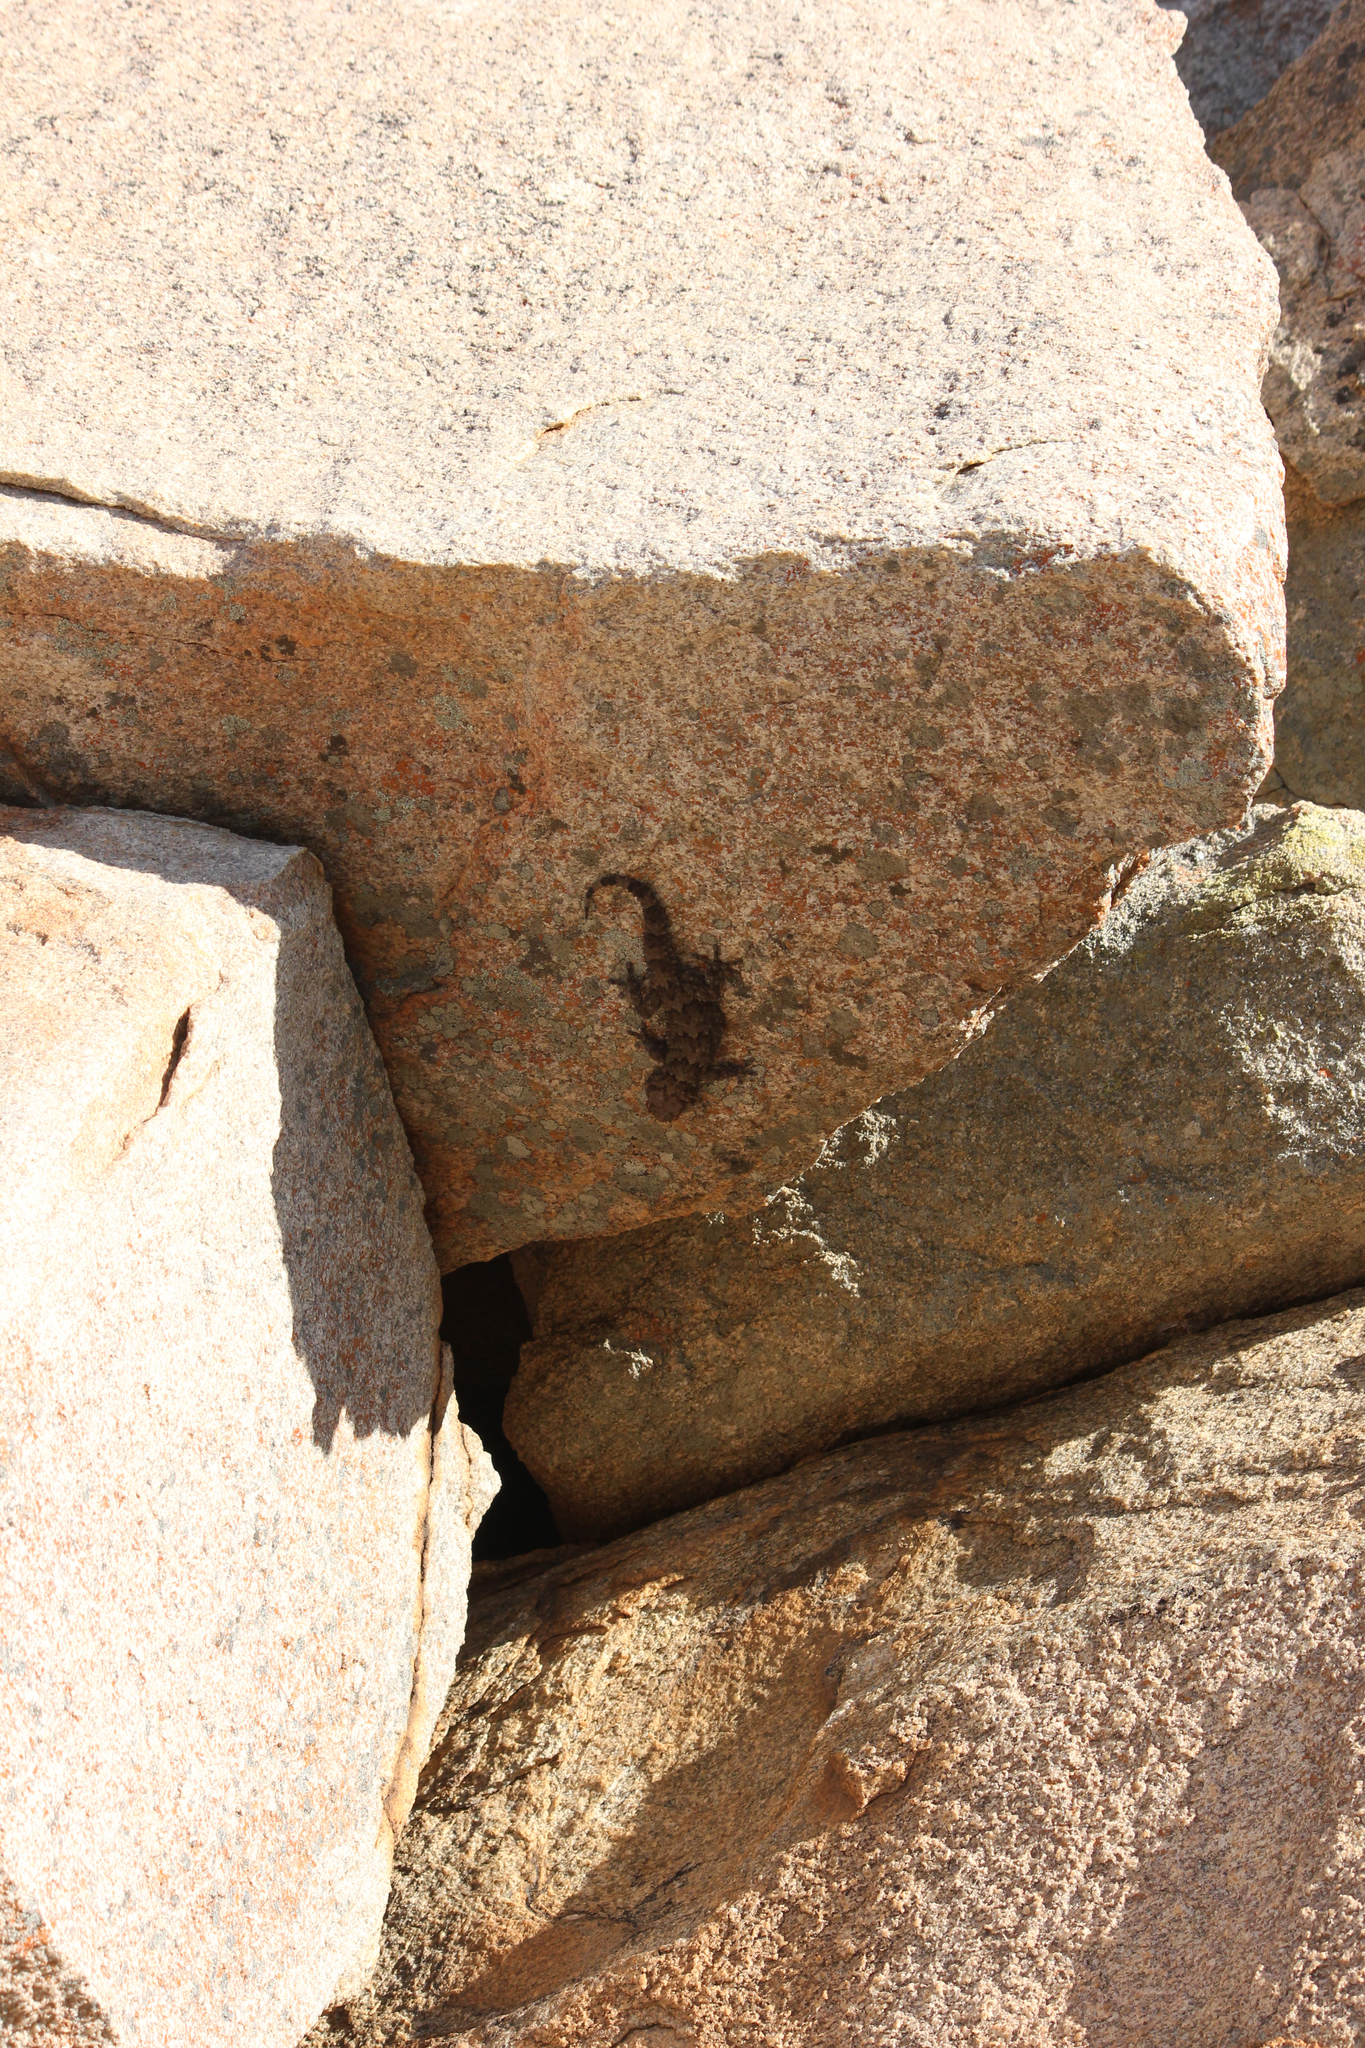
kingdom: Animalia
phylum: Chordata
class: Squamata
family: Gekkonidae
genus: Chondrodactylus
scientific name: Chondrodactylus bibronii
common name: Bibron's gecko
